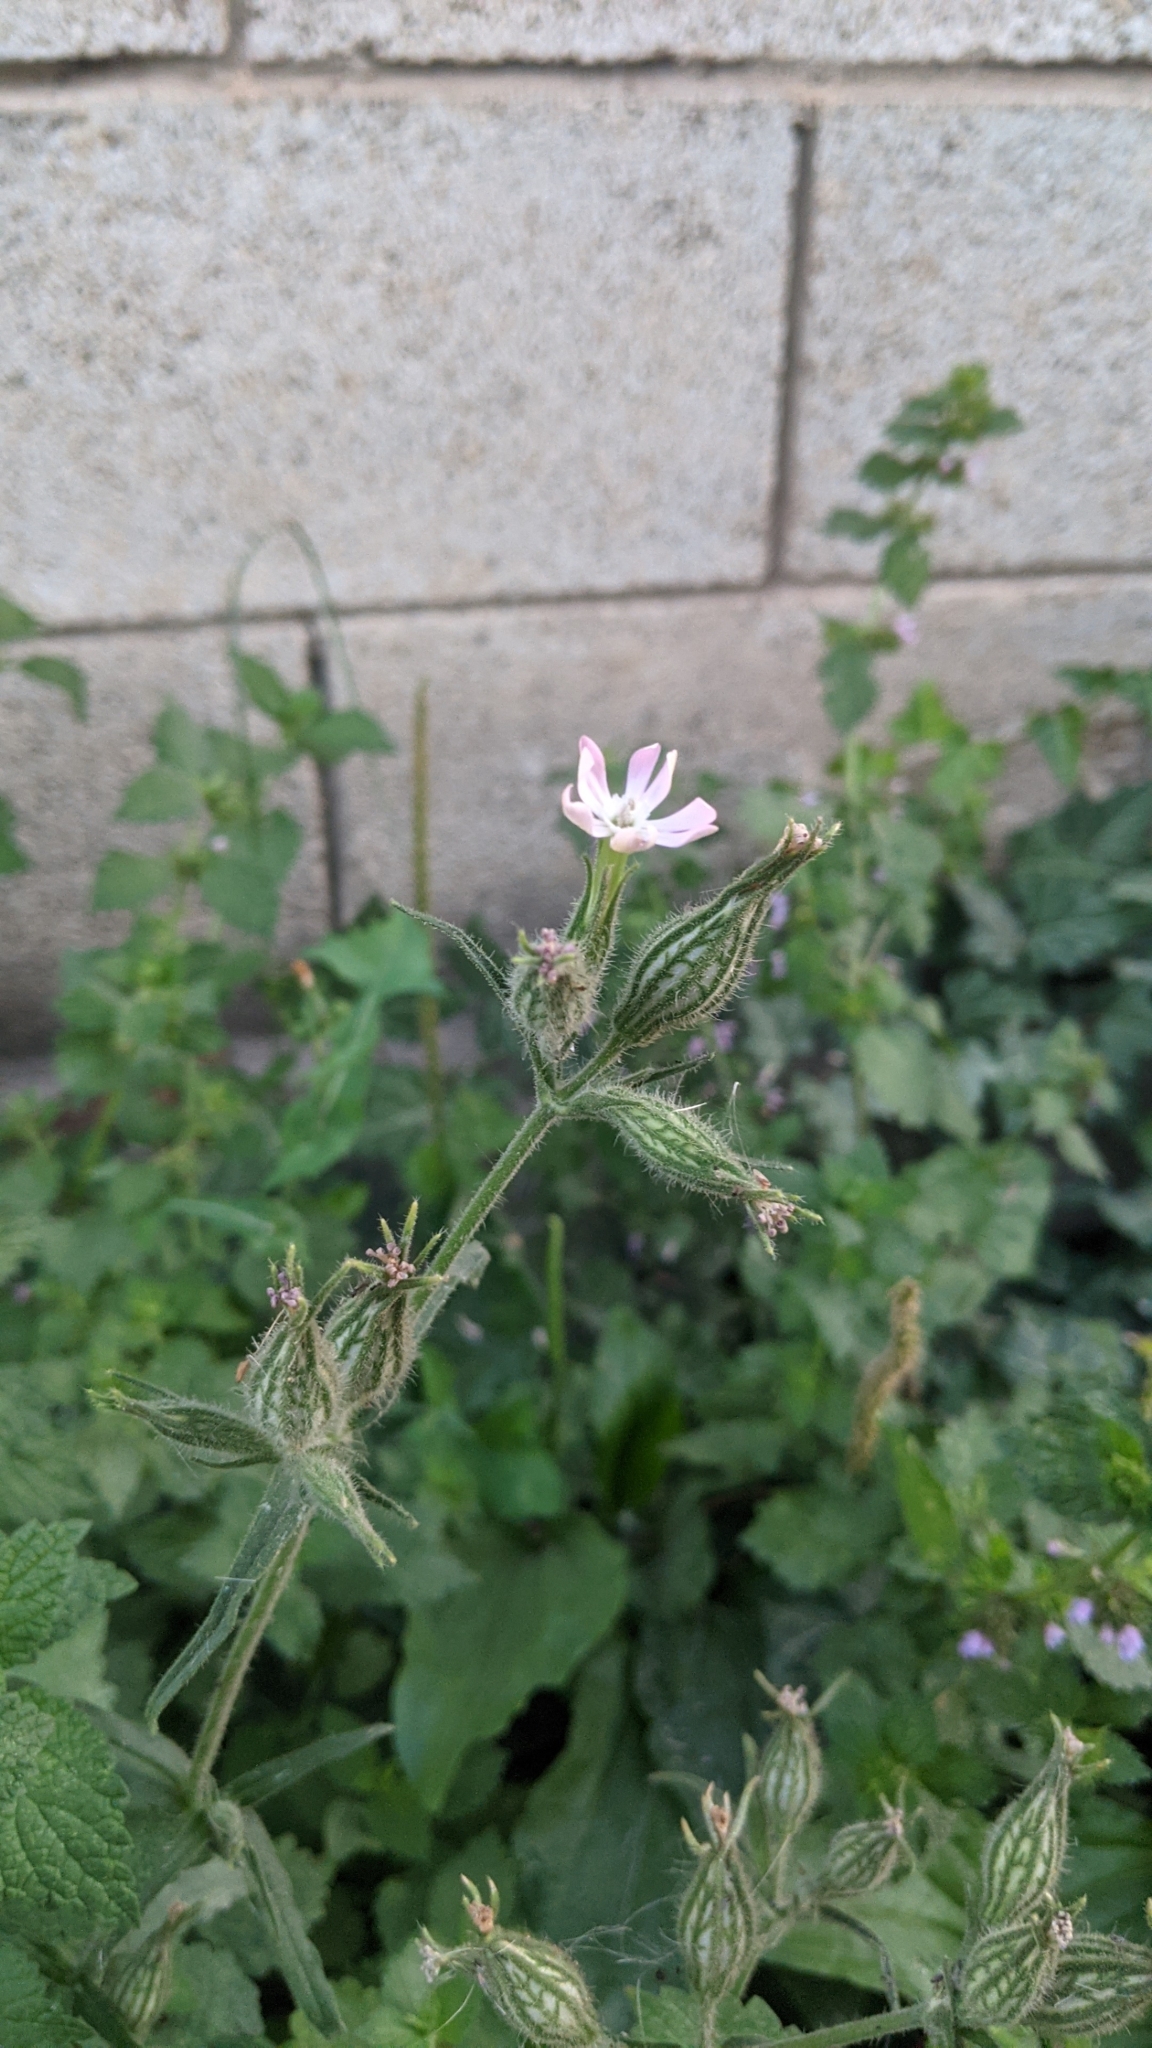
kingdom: Plantae
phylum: Tracheophyta
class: Magnoliopsida
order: Caryophyllales
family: Caryophyllaceae
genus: Silene
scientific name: Silene noctiflora
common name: Night-flowering catchfly
